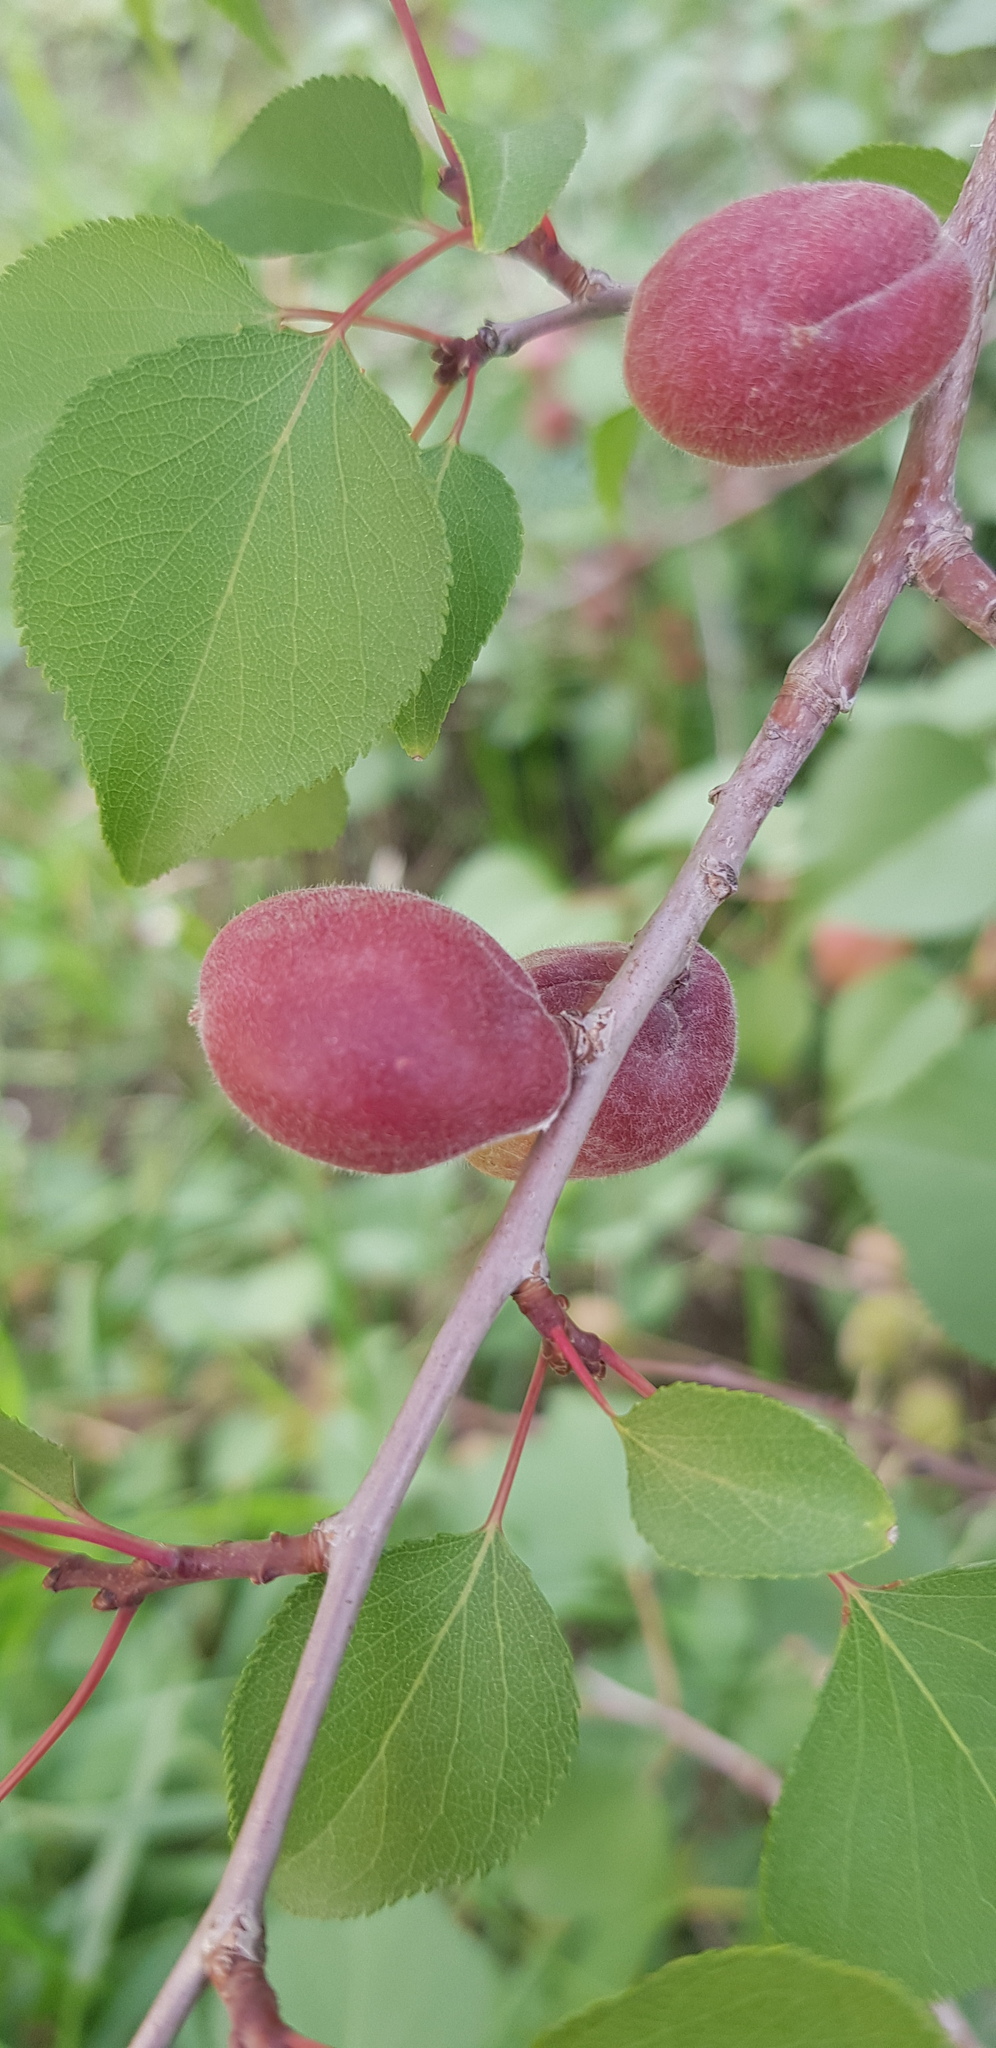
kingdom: Plantae
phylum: Tracheophyta
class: Magnoliopsida
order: Rosales
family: Rosaceae
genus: Prunus
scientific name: Prunus armeniaca
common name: Apricot
